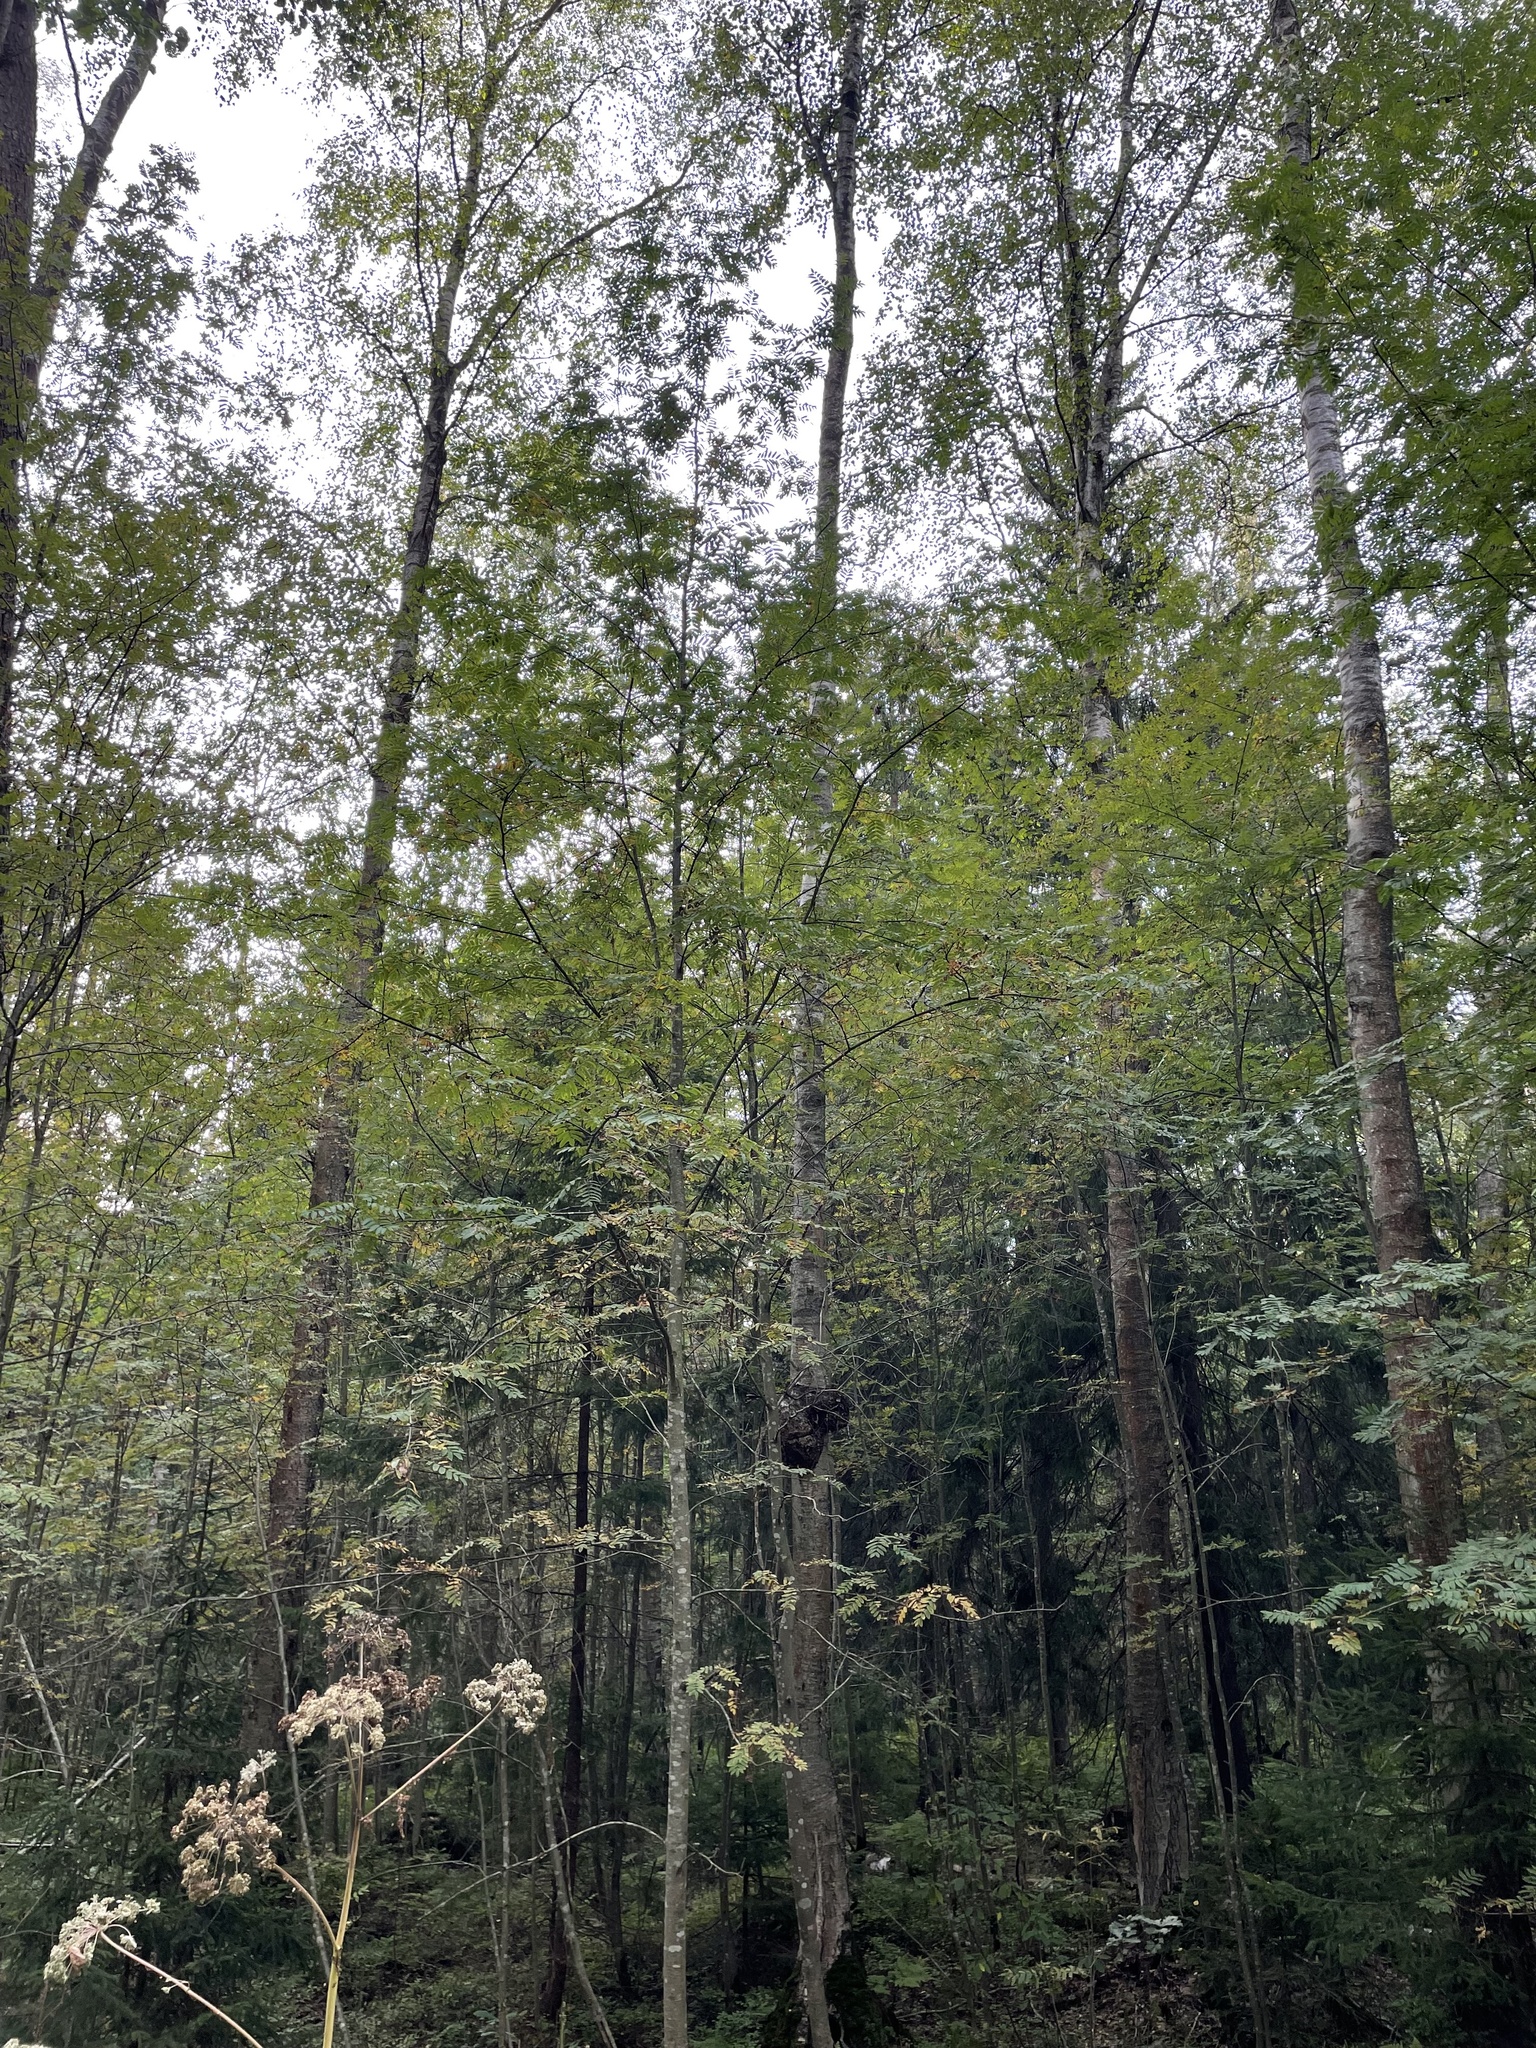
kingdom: Bacteria
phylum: Proteobacteria
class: Alphaproteobacteria
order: Rhizobiales
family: Rhizobiaceae
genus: Rhizobium
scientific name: Rhizobium Agrobacterium radiobacter
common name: Bacterial crown gall
